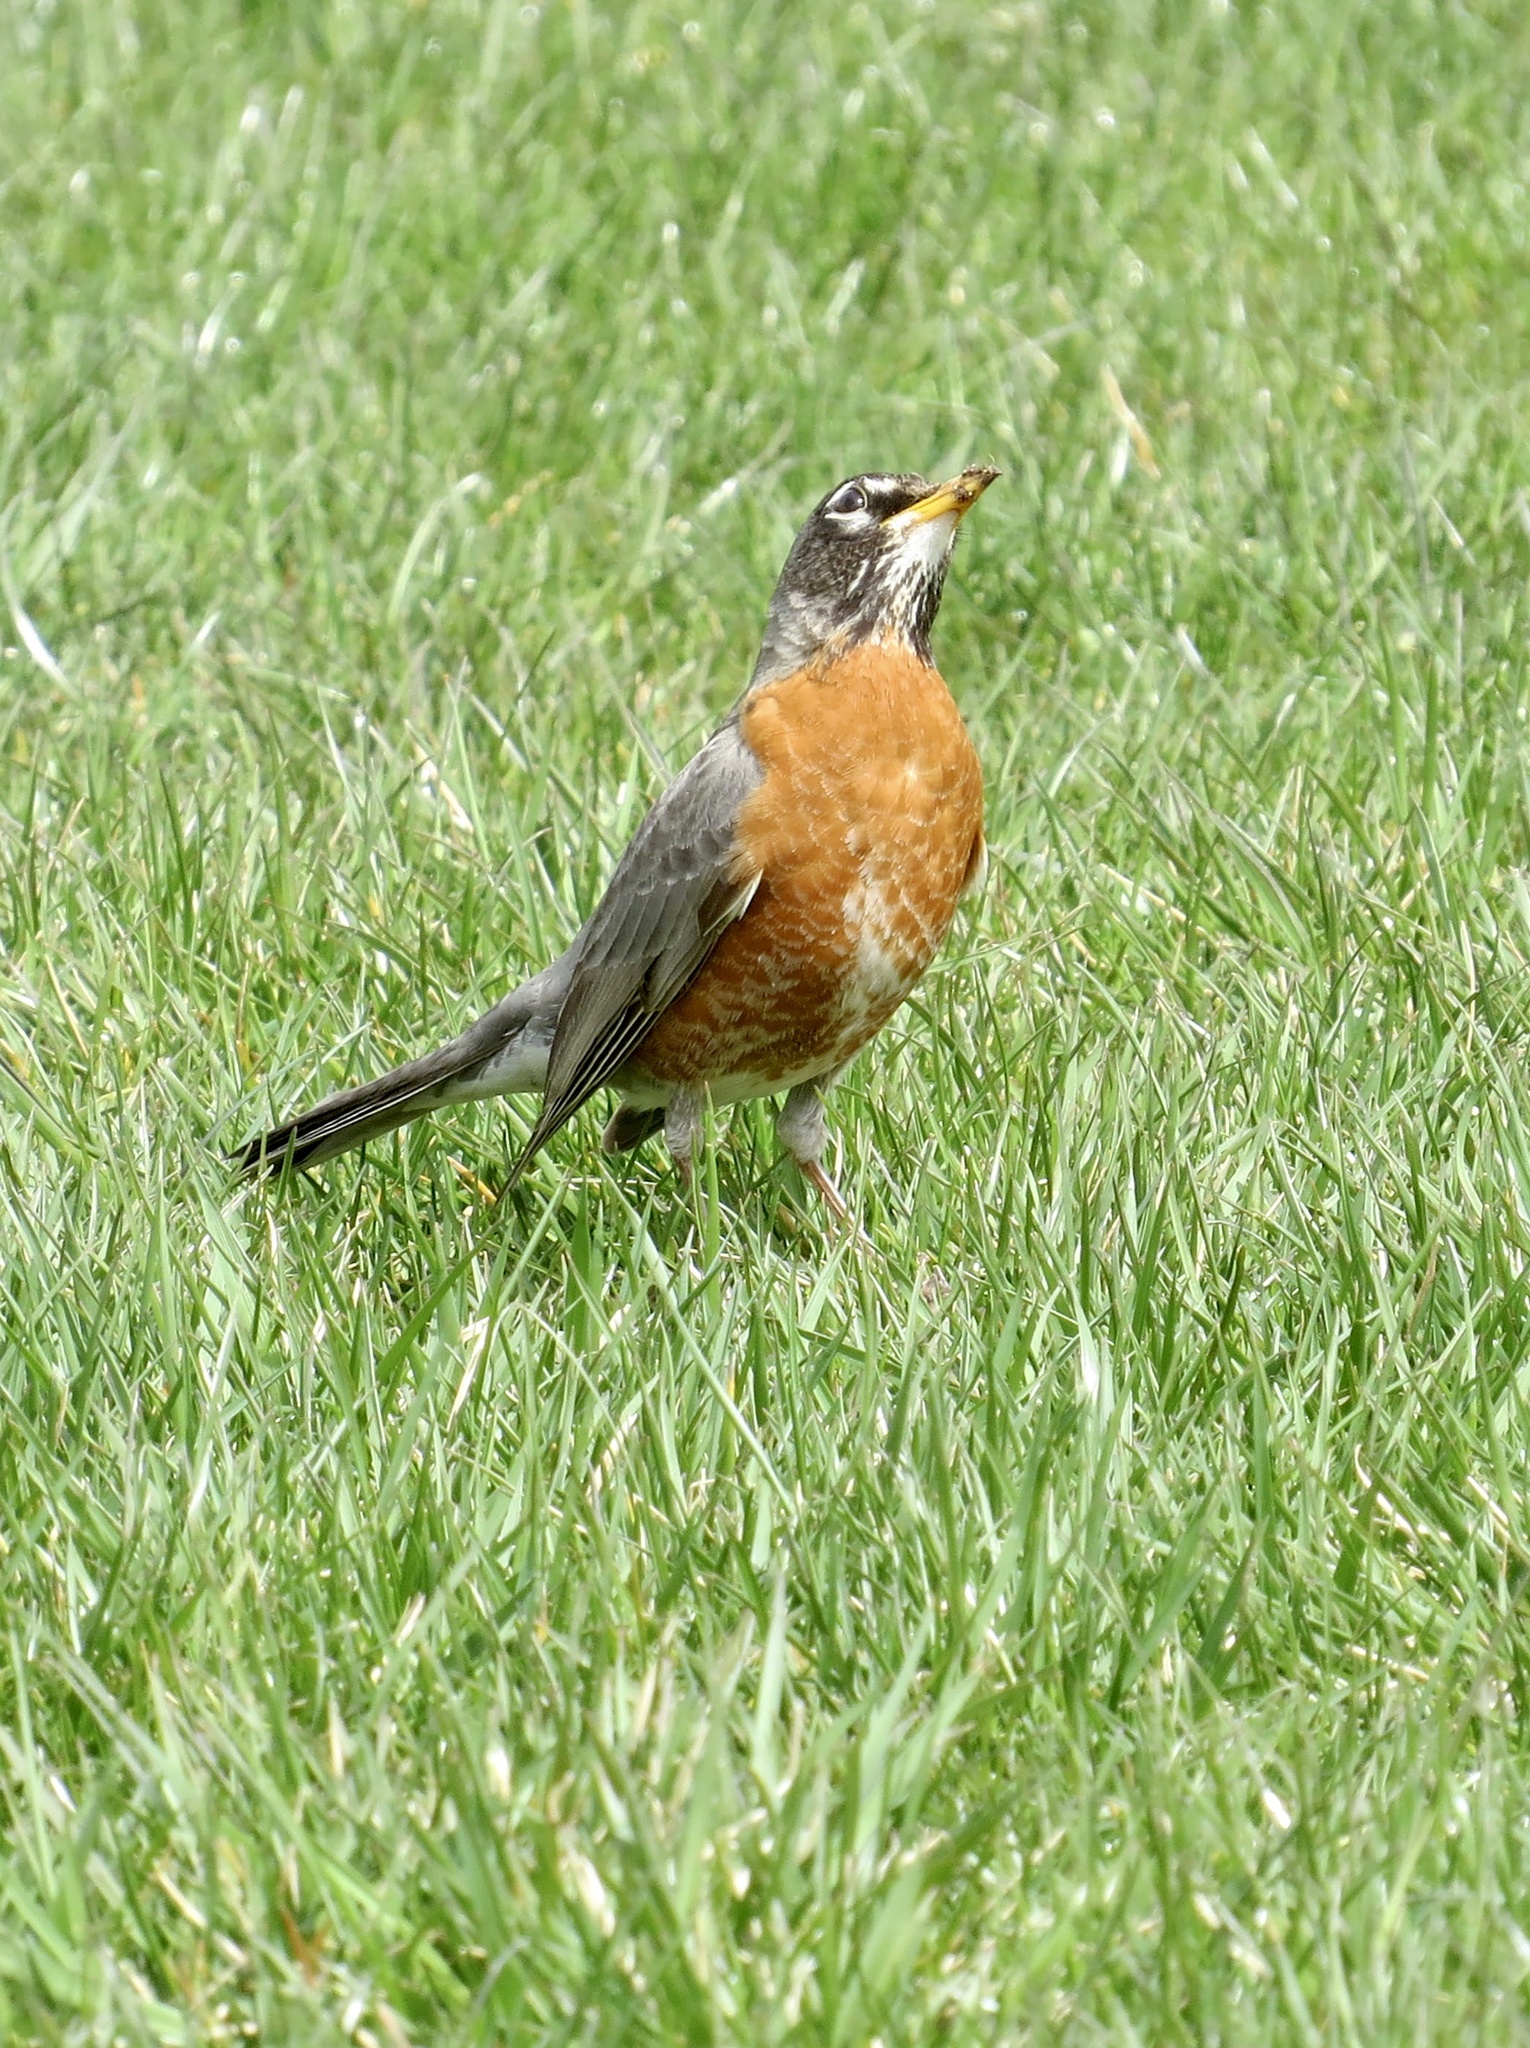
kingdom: Animalia
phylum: Chordata
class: Aves
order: Passeriformes
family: Turdidae
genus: Turdus
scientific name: Turdus migratorius
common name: American robin
